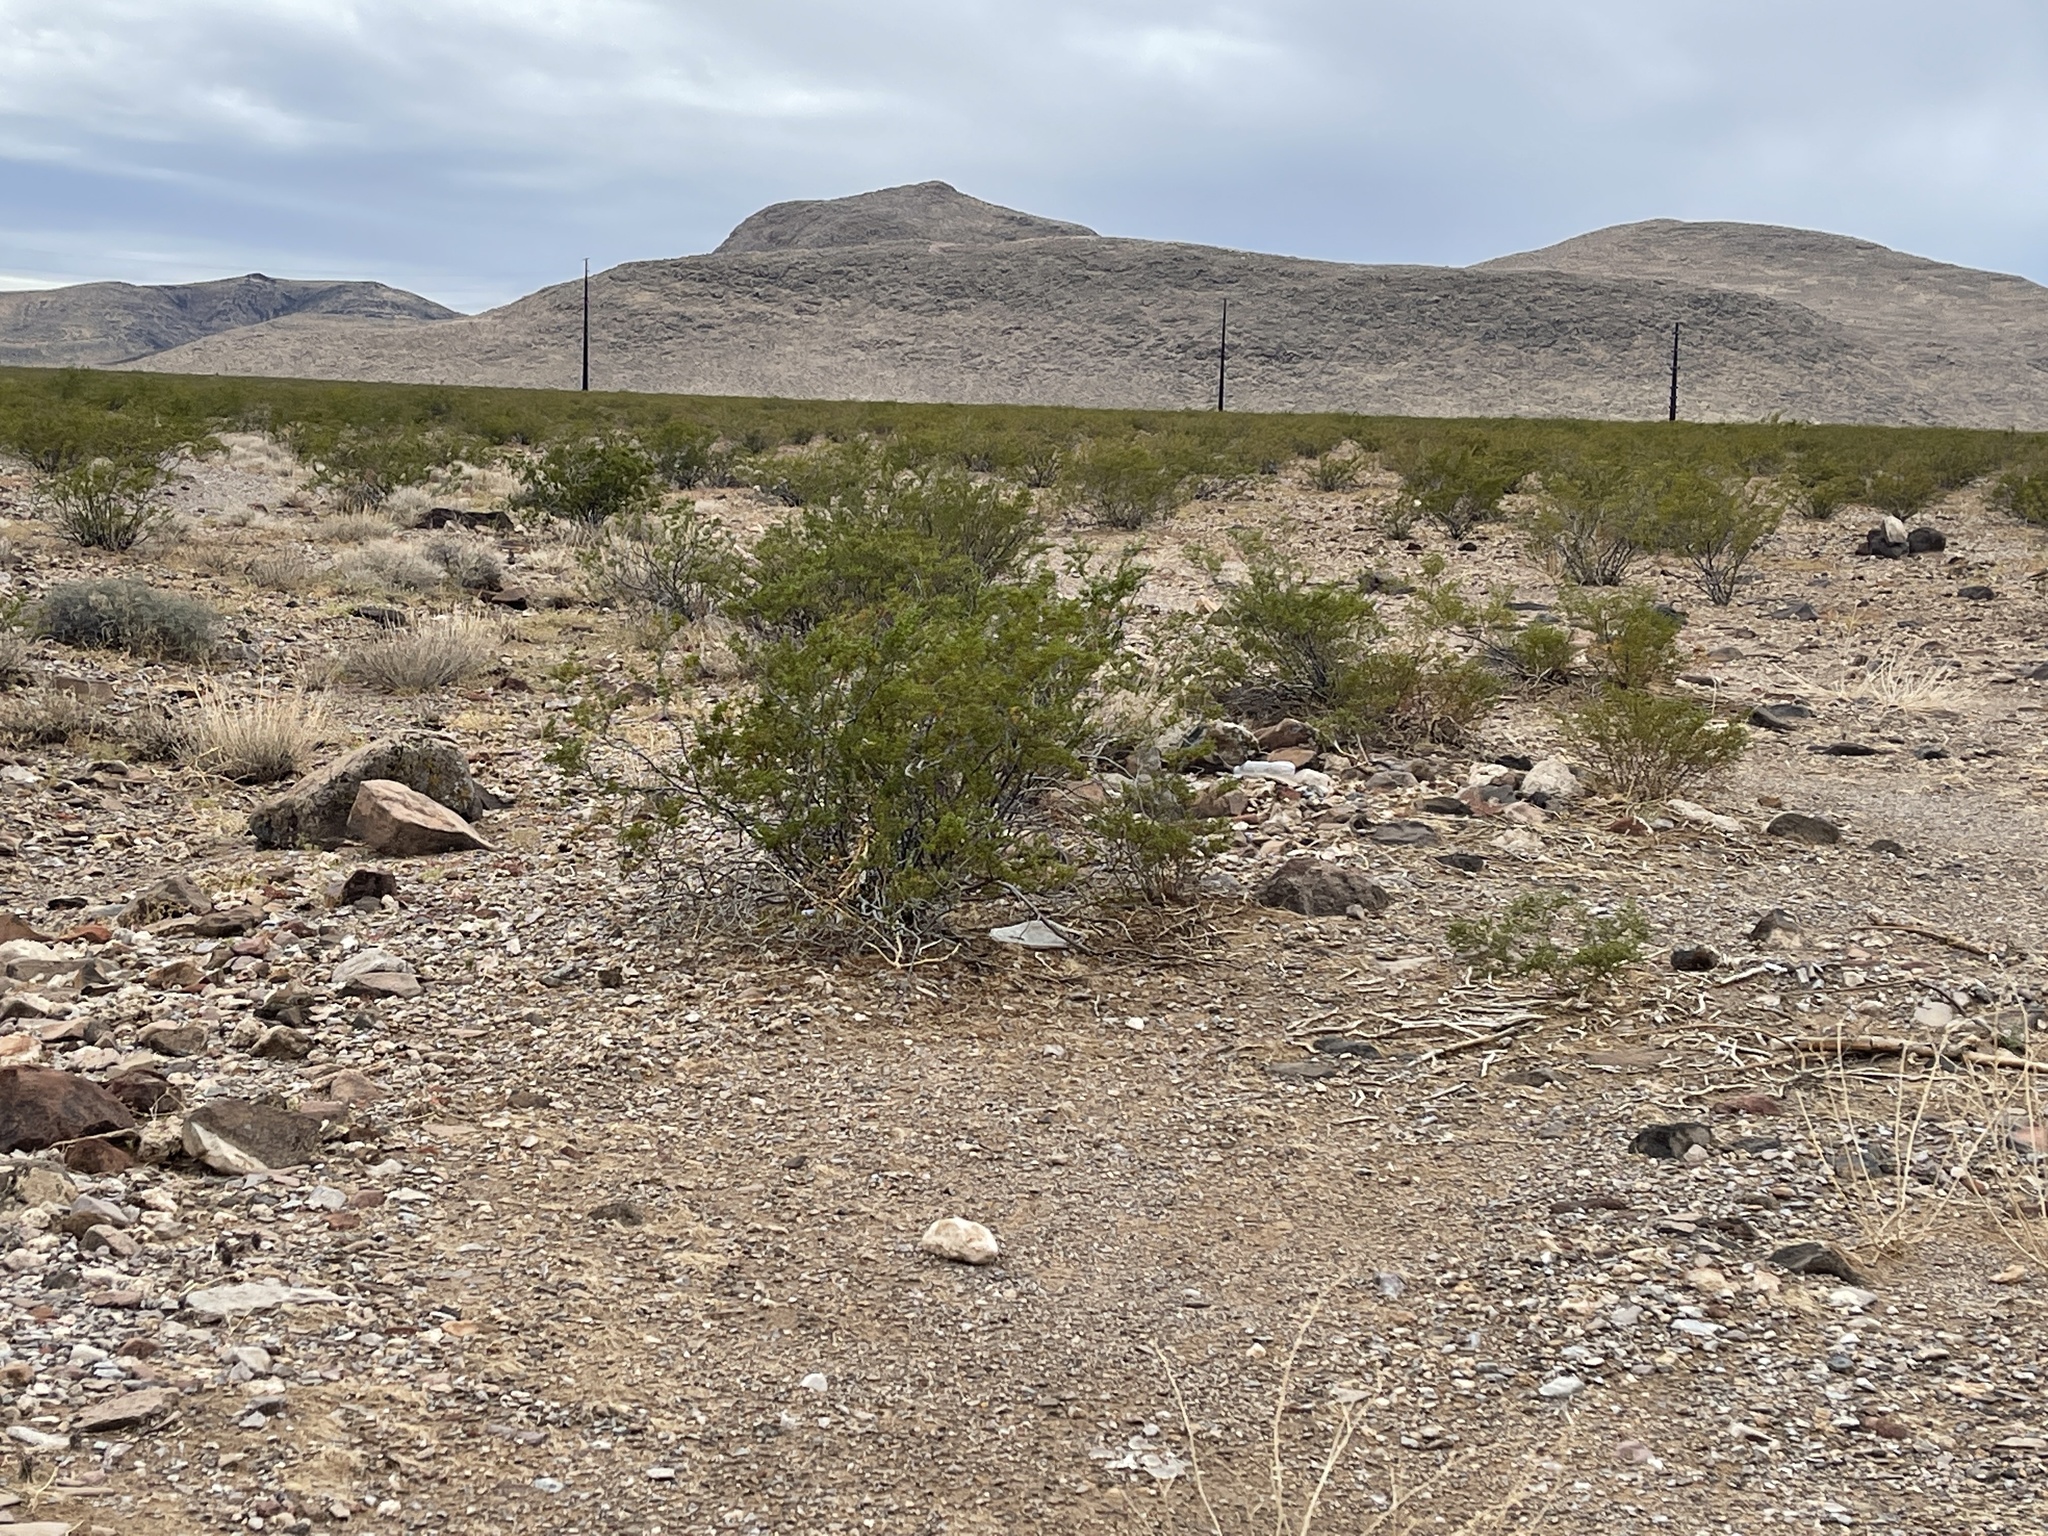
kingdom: Plantae
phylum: Tracheophyta
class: Magnoliopsida
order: Zygophyllales
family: Zygophyllaceae
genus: Larrea
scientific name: Larrea tridentata
